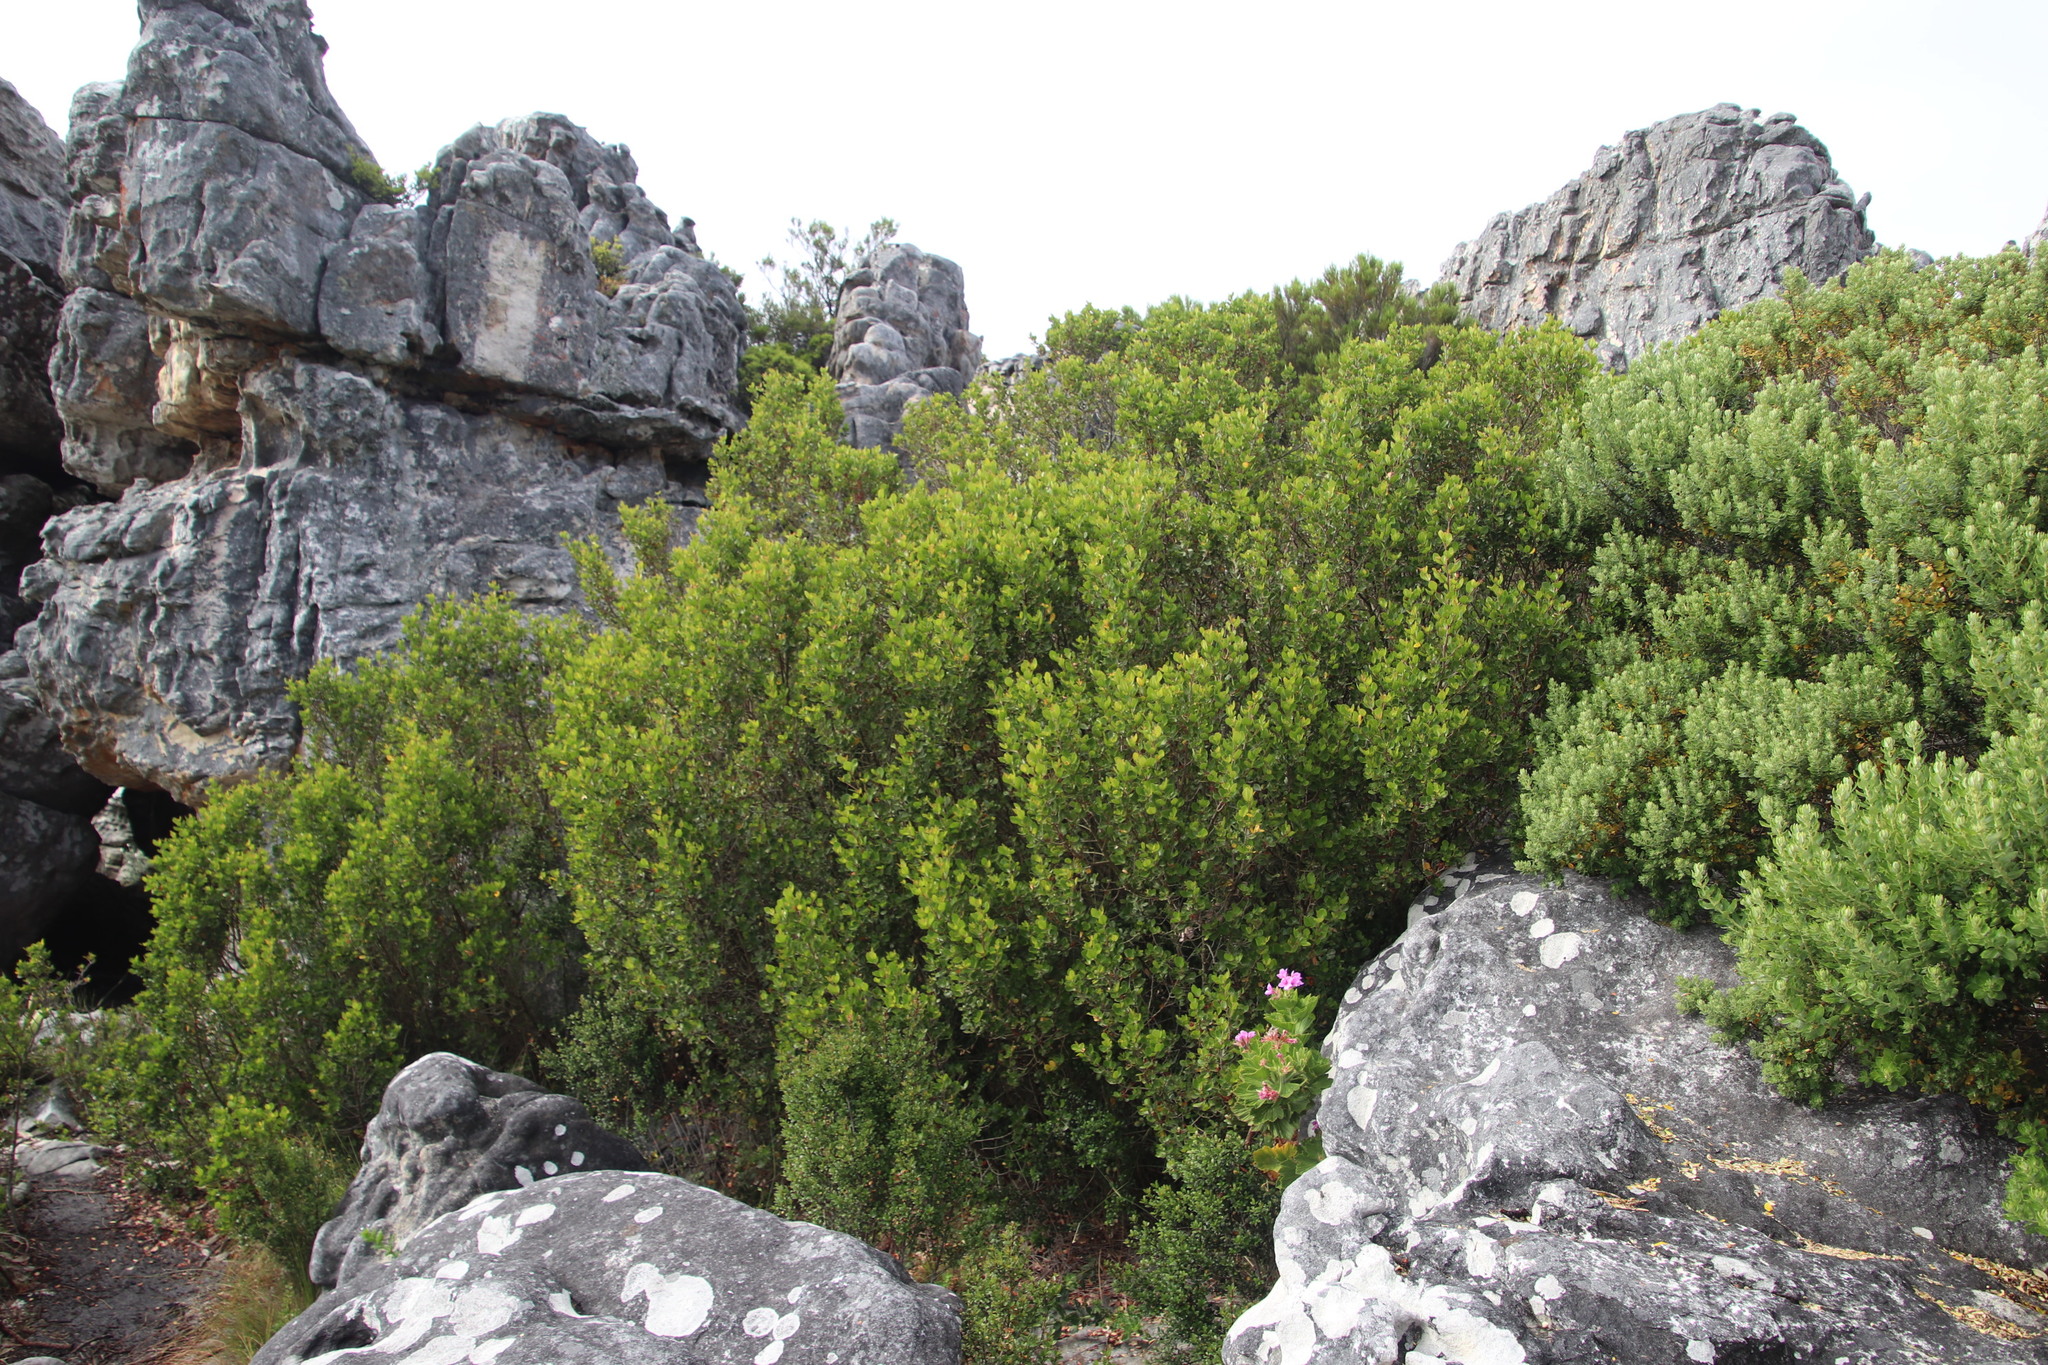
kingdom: Plantae
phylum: Tracheophyta
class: Magnoliopsida
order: Sapindales
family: Anacardiaceae
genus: Searsia
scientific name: Searsia lucida
